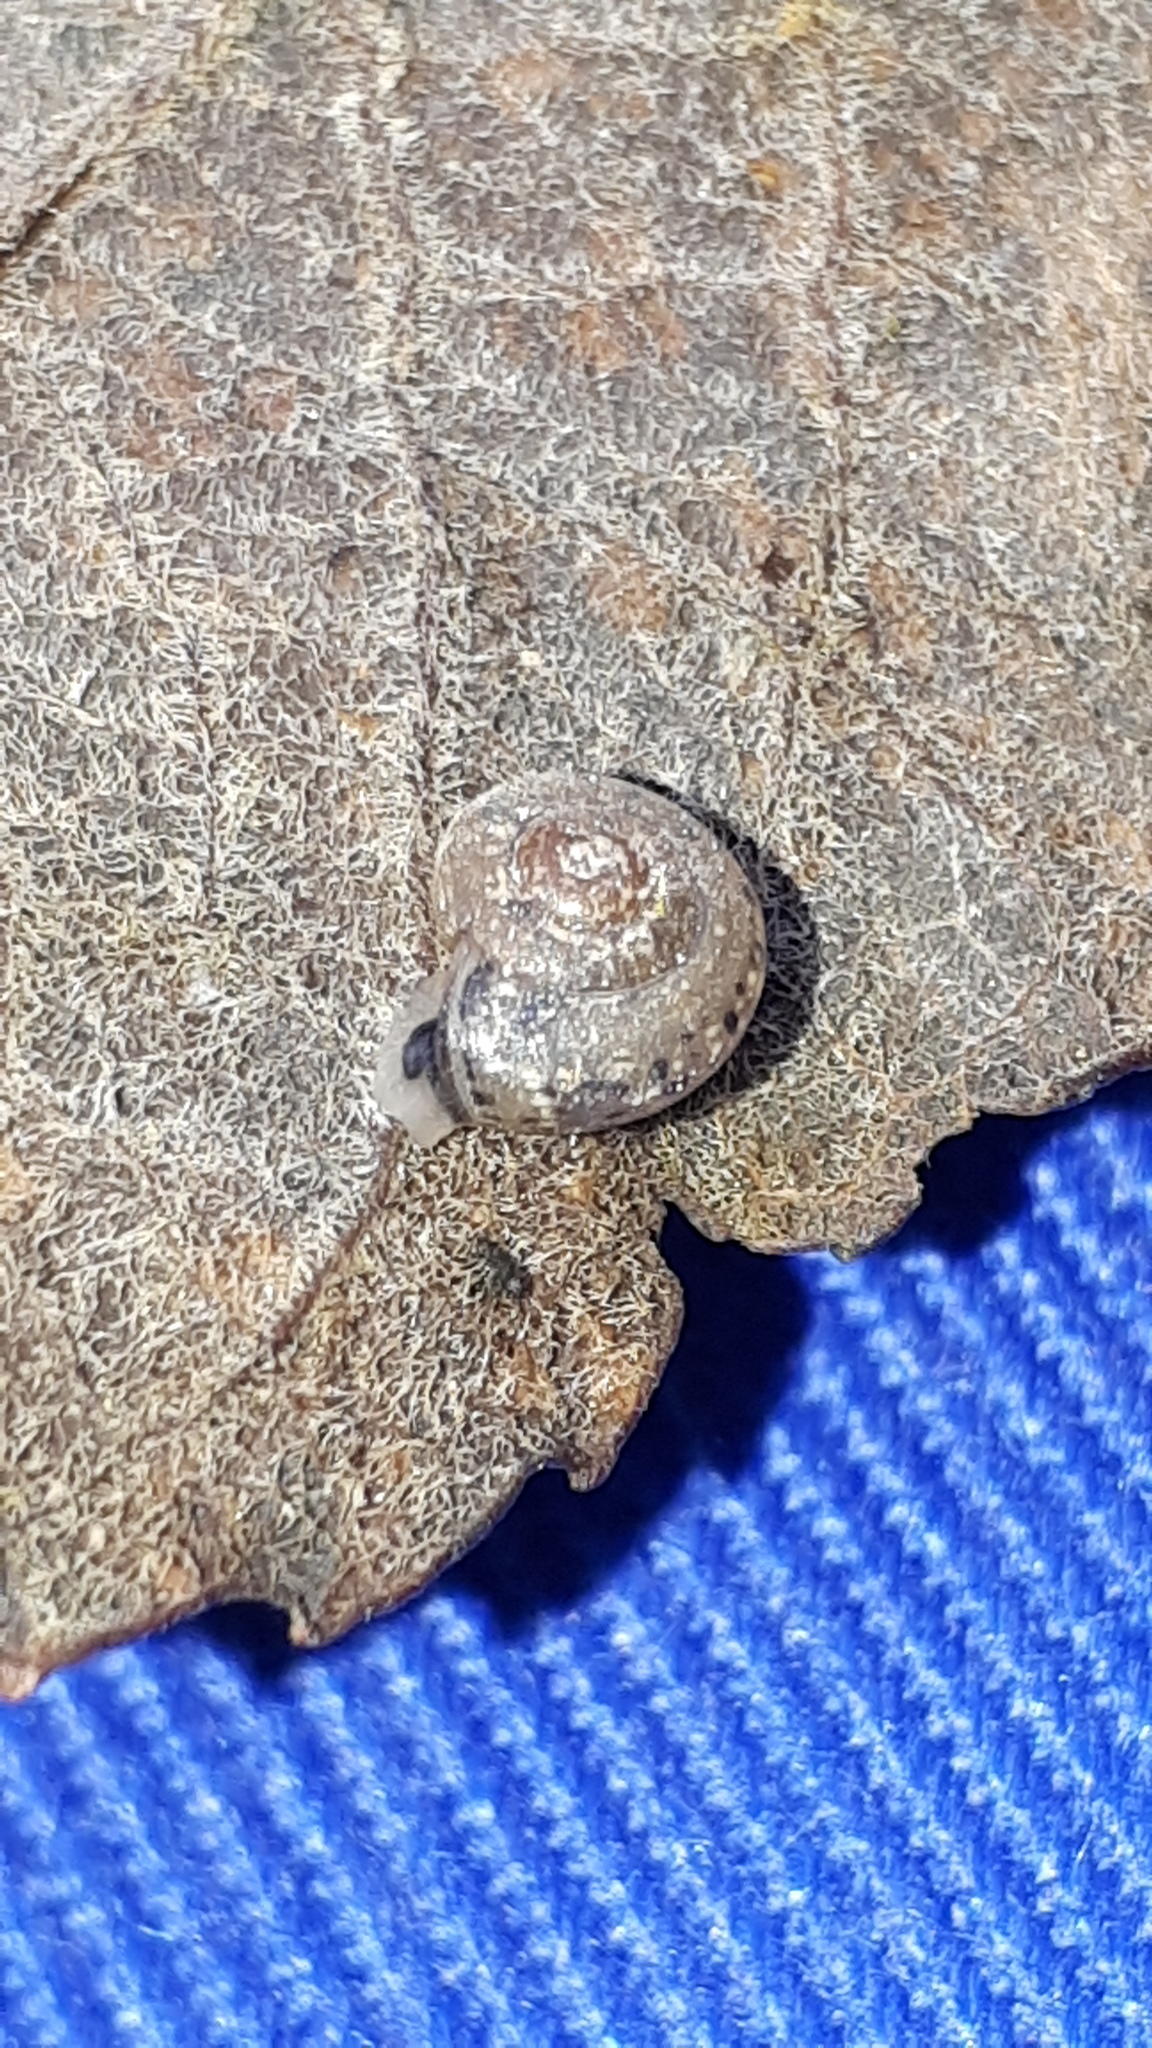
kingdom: Animalia
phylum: Mollusca
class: Gastropoda
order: Stylommatophora
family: Hygromiidae
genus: Monachoides
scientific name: Monachoides incarnatus
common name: Incarnate snail
